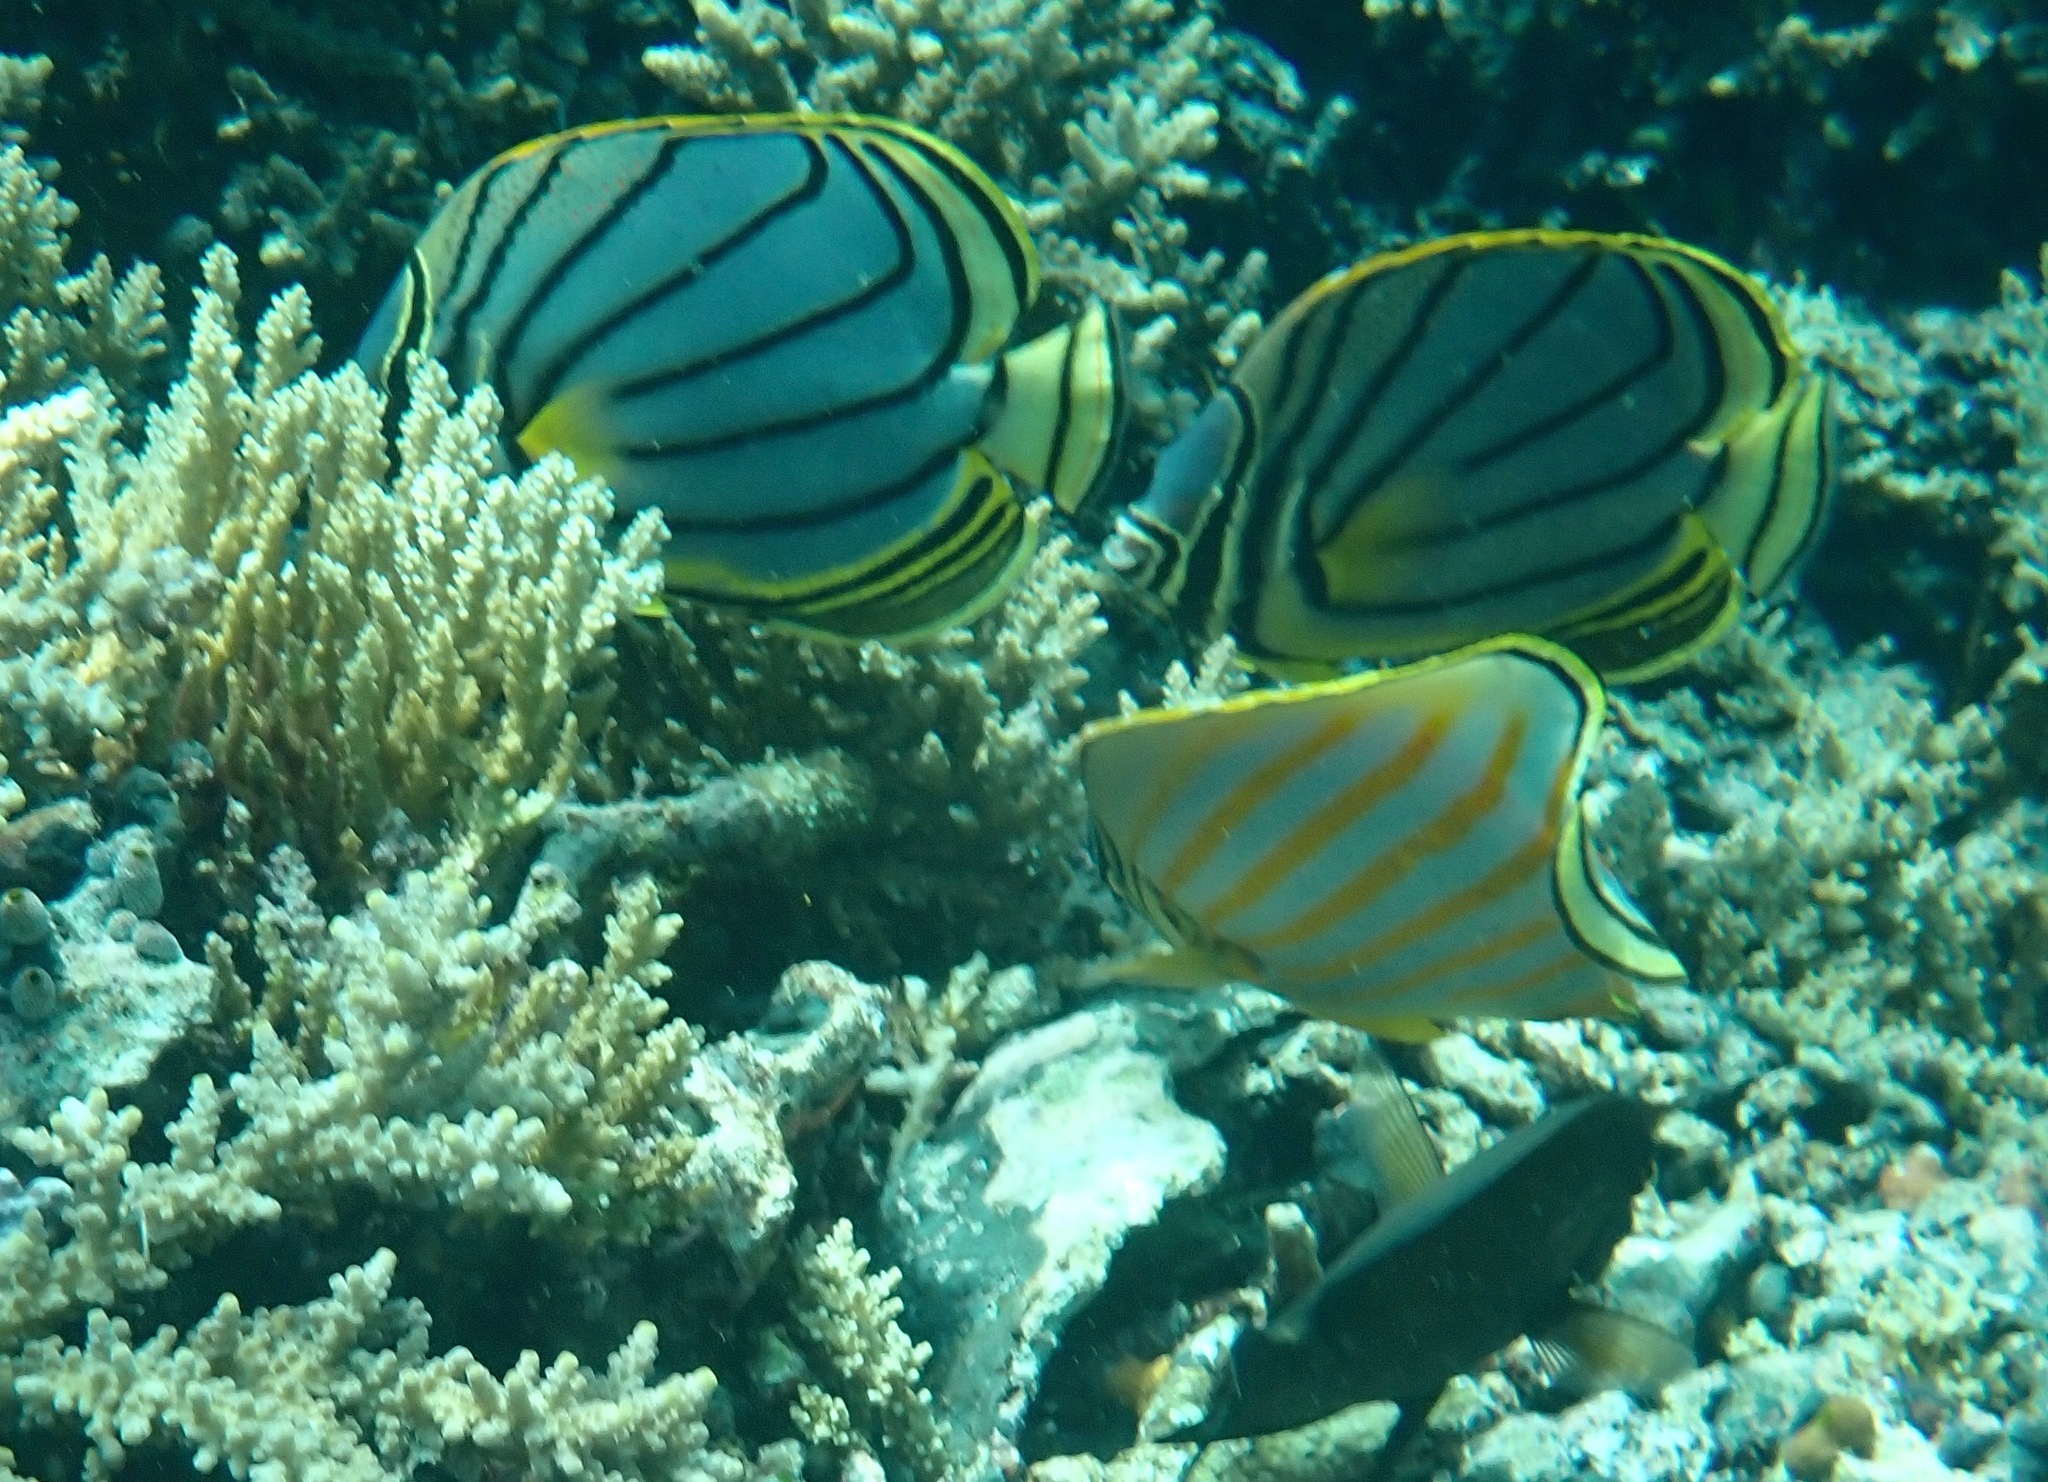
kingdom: Animalia
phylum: Chordata
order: Perciformes
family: Chaetodontidae
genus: Chaetodon
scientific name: Chaetodon meyeri
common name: Meyer's butterflyfish
